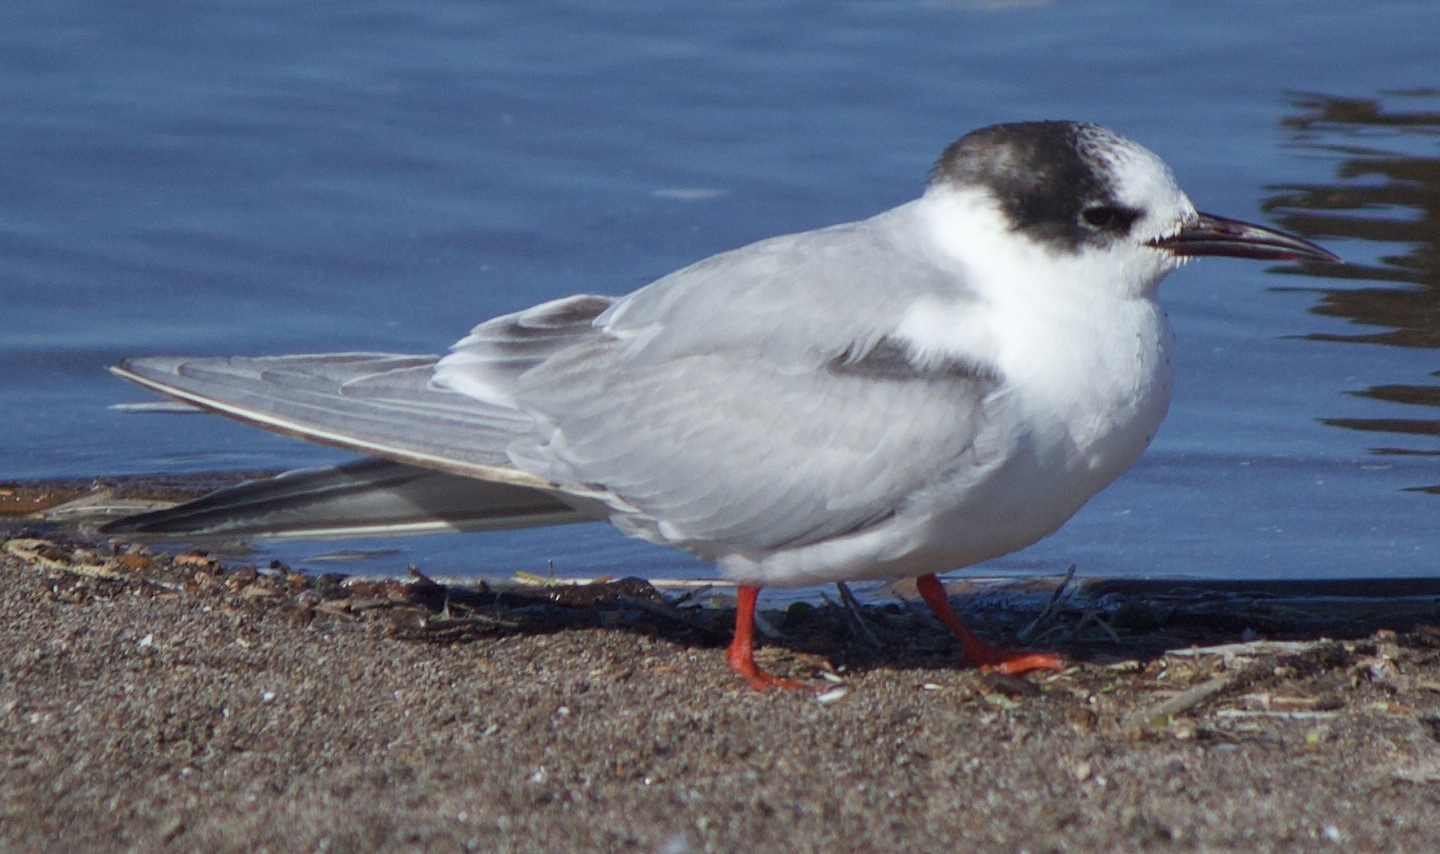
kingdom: Animalia
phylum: Chordata
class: Aves
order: Charadriiformes
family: Laridae
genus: Sterna
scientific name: Sterna hirundinacea
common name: South american tern
